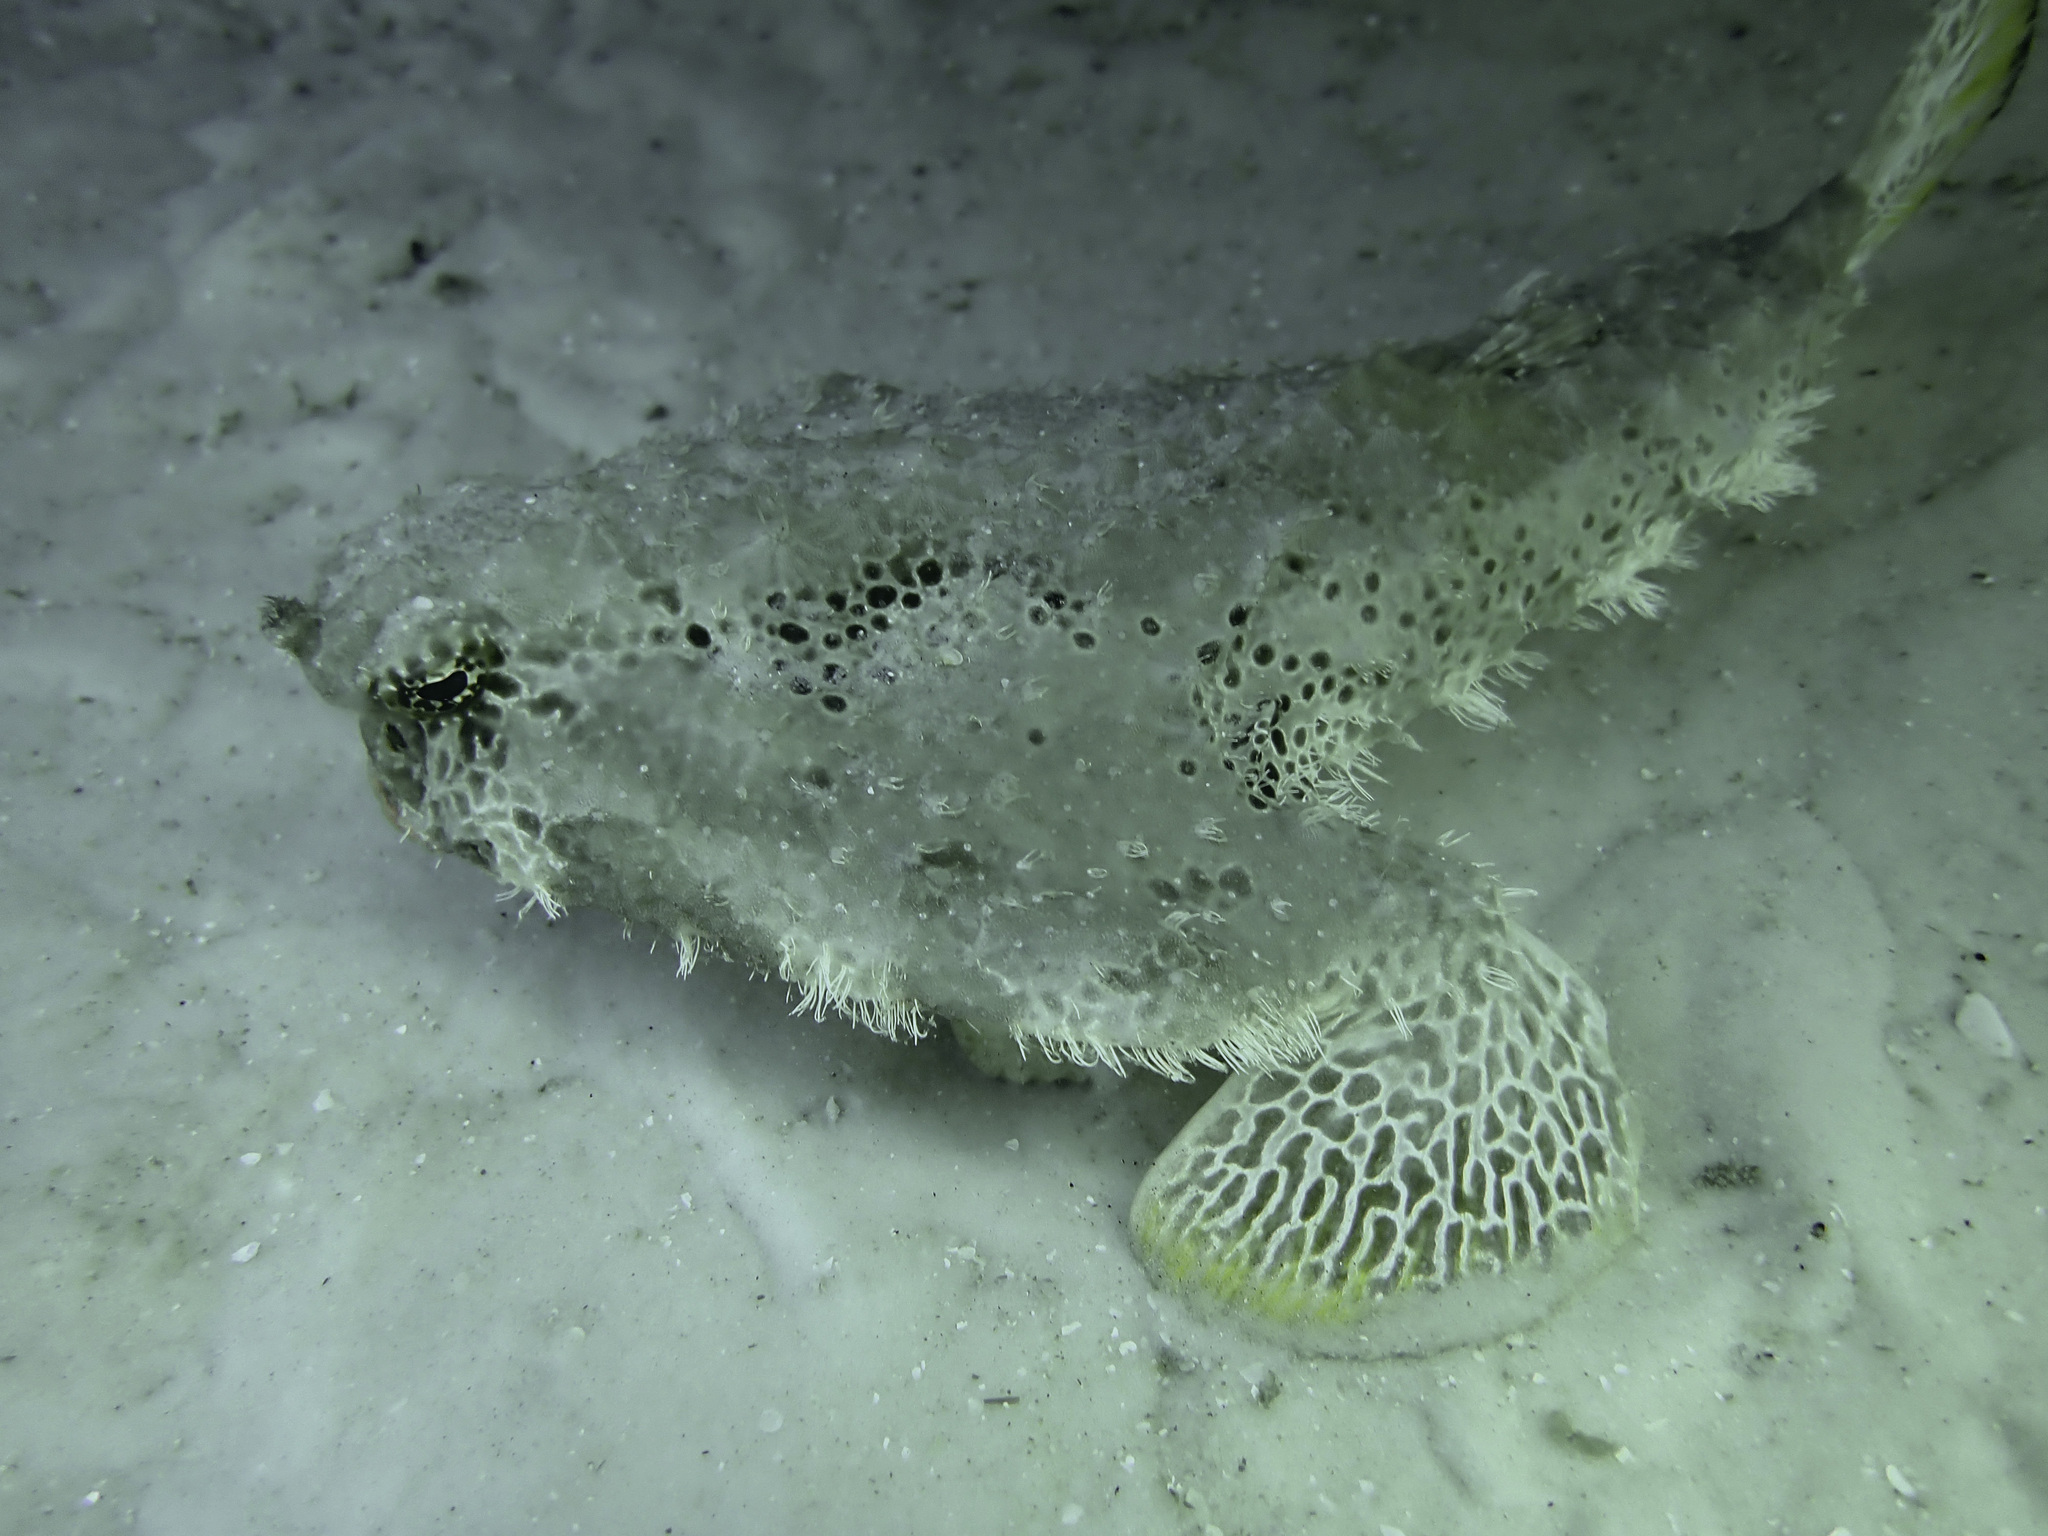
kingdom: Animalia
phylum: Chordata
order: Lophiiformes
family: Ogcocephalidae
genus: Ogcocephalus
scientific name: Ogcocephalus cubifrons
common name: Polka-dot batfish
